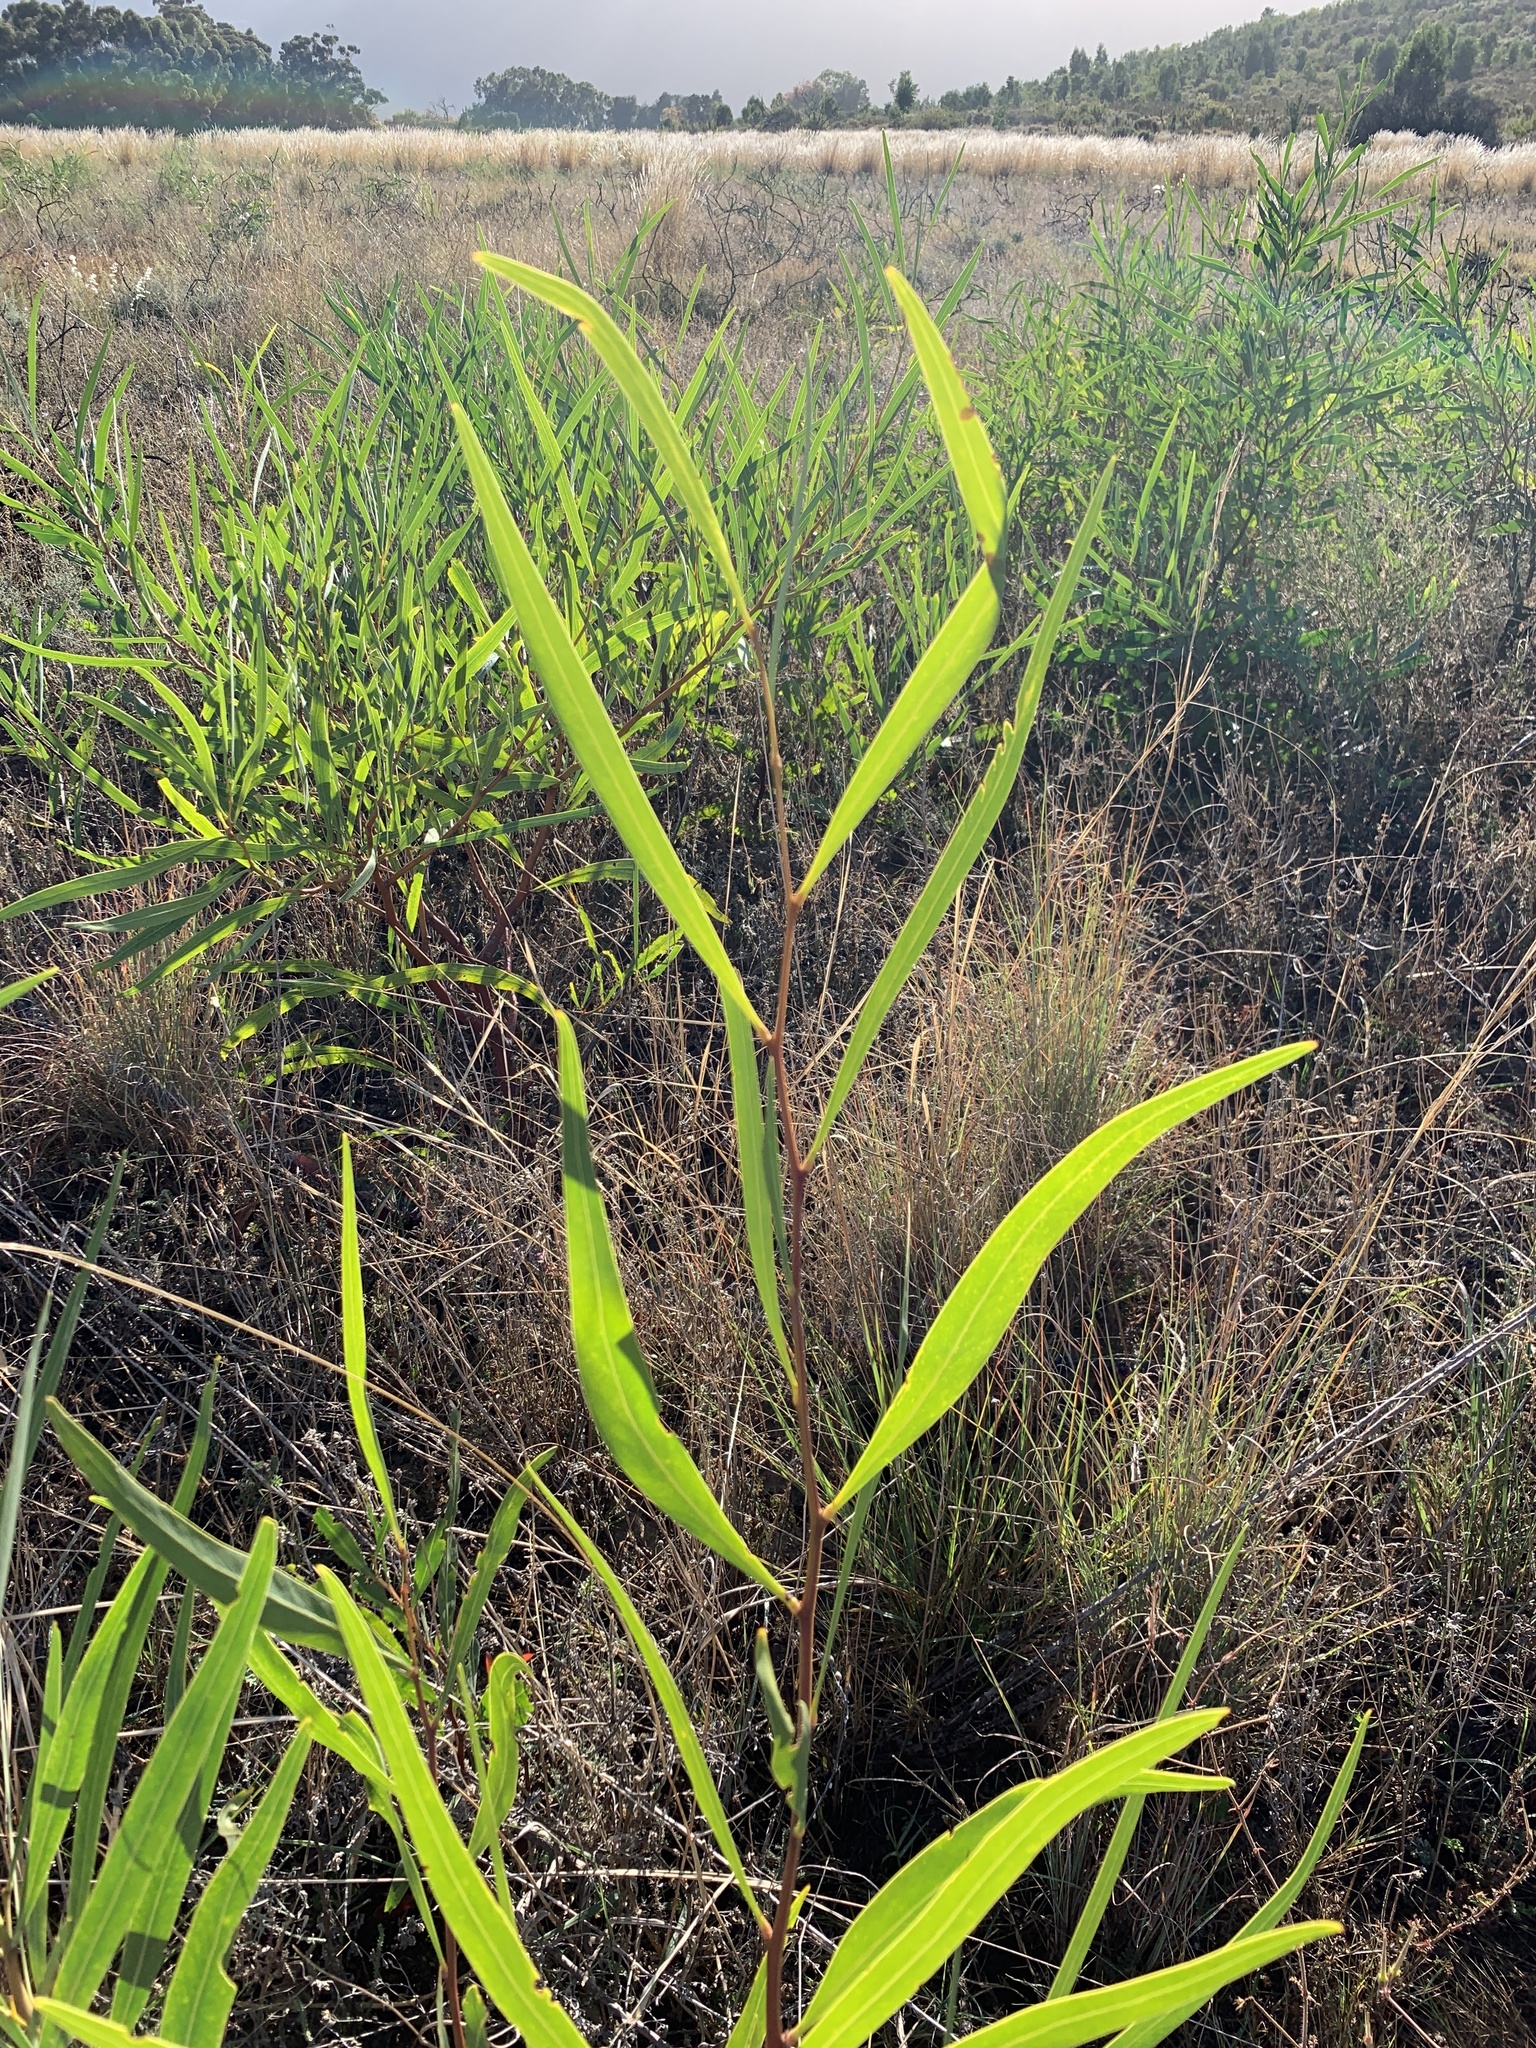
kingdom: Plantae
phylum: Tracheophyta
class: Magnoliopsida
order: Fabales
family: Fabaceae
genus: Acacia
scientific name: Acacia saligna
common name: Orange wattle
